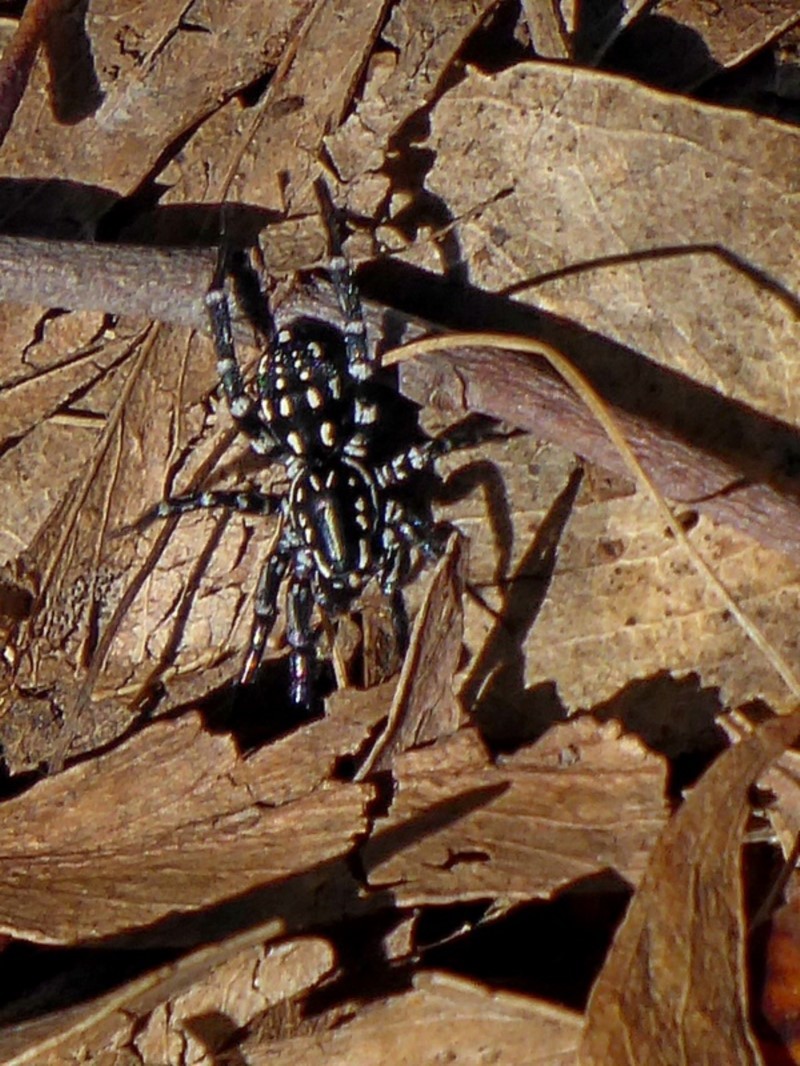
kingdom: Animalia
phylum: Arthropoda
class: Arachnida
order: Araneae
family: Corinnidae
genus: Nyssus
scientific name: Nyssus albopunctatus
